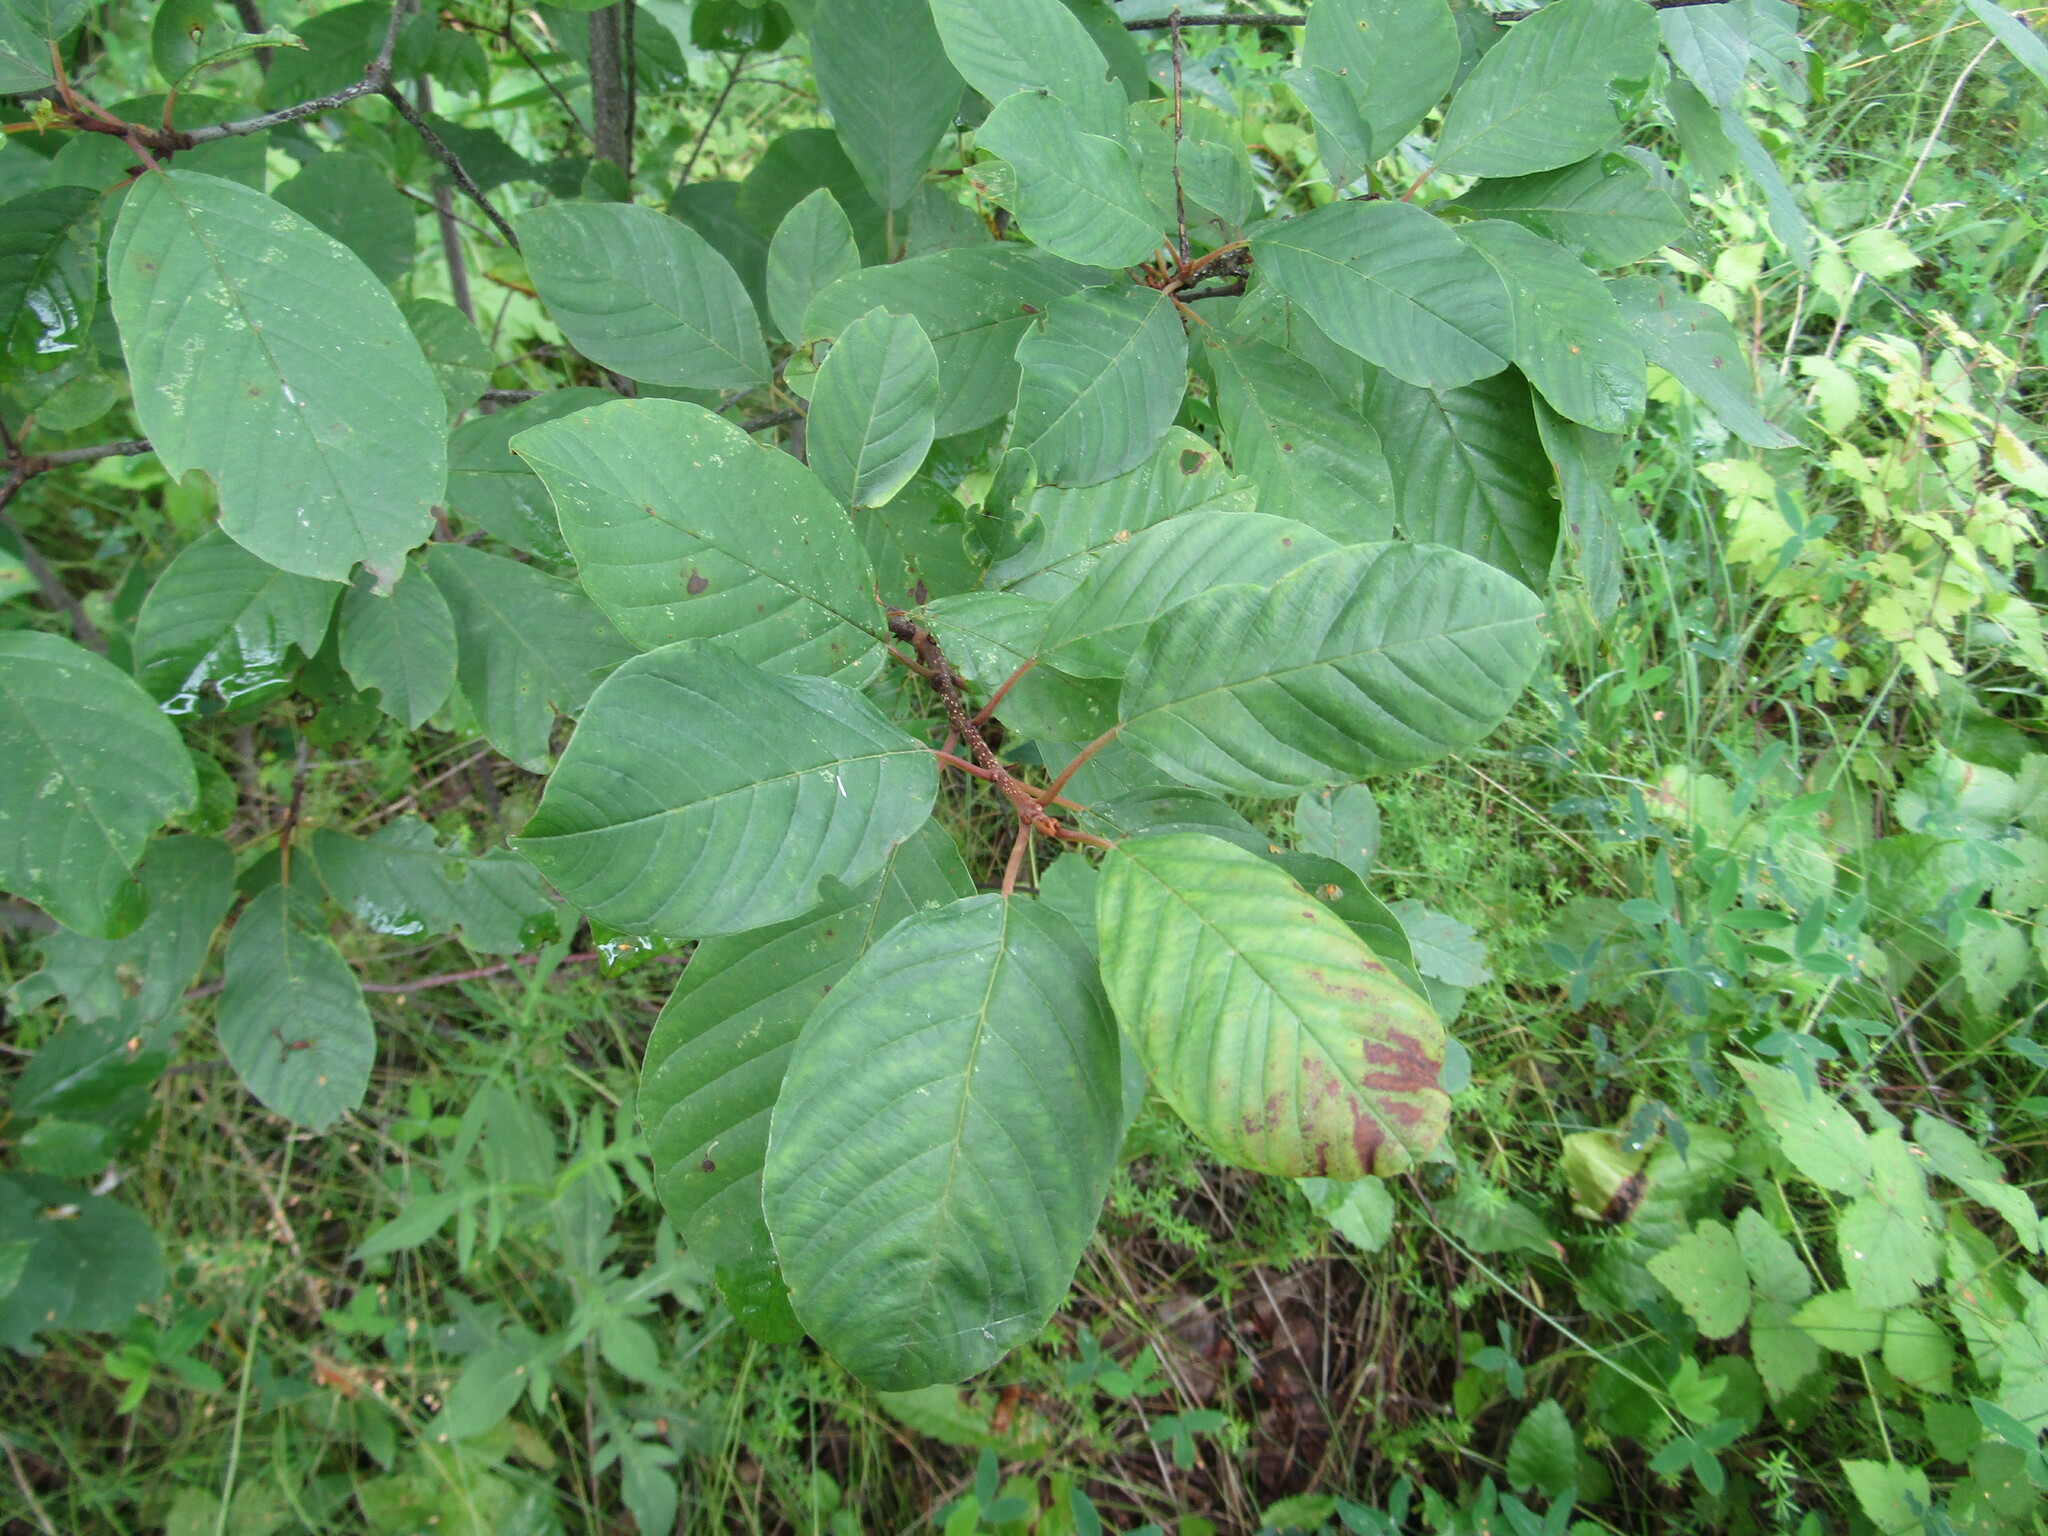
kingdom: Plantae
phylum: Tracheophyta
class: Magnoliopsida
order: Rosales
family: Rhamnaceae
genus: Frangula
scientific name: Frangula alnus
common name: Alder buckthorn
